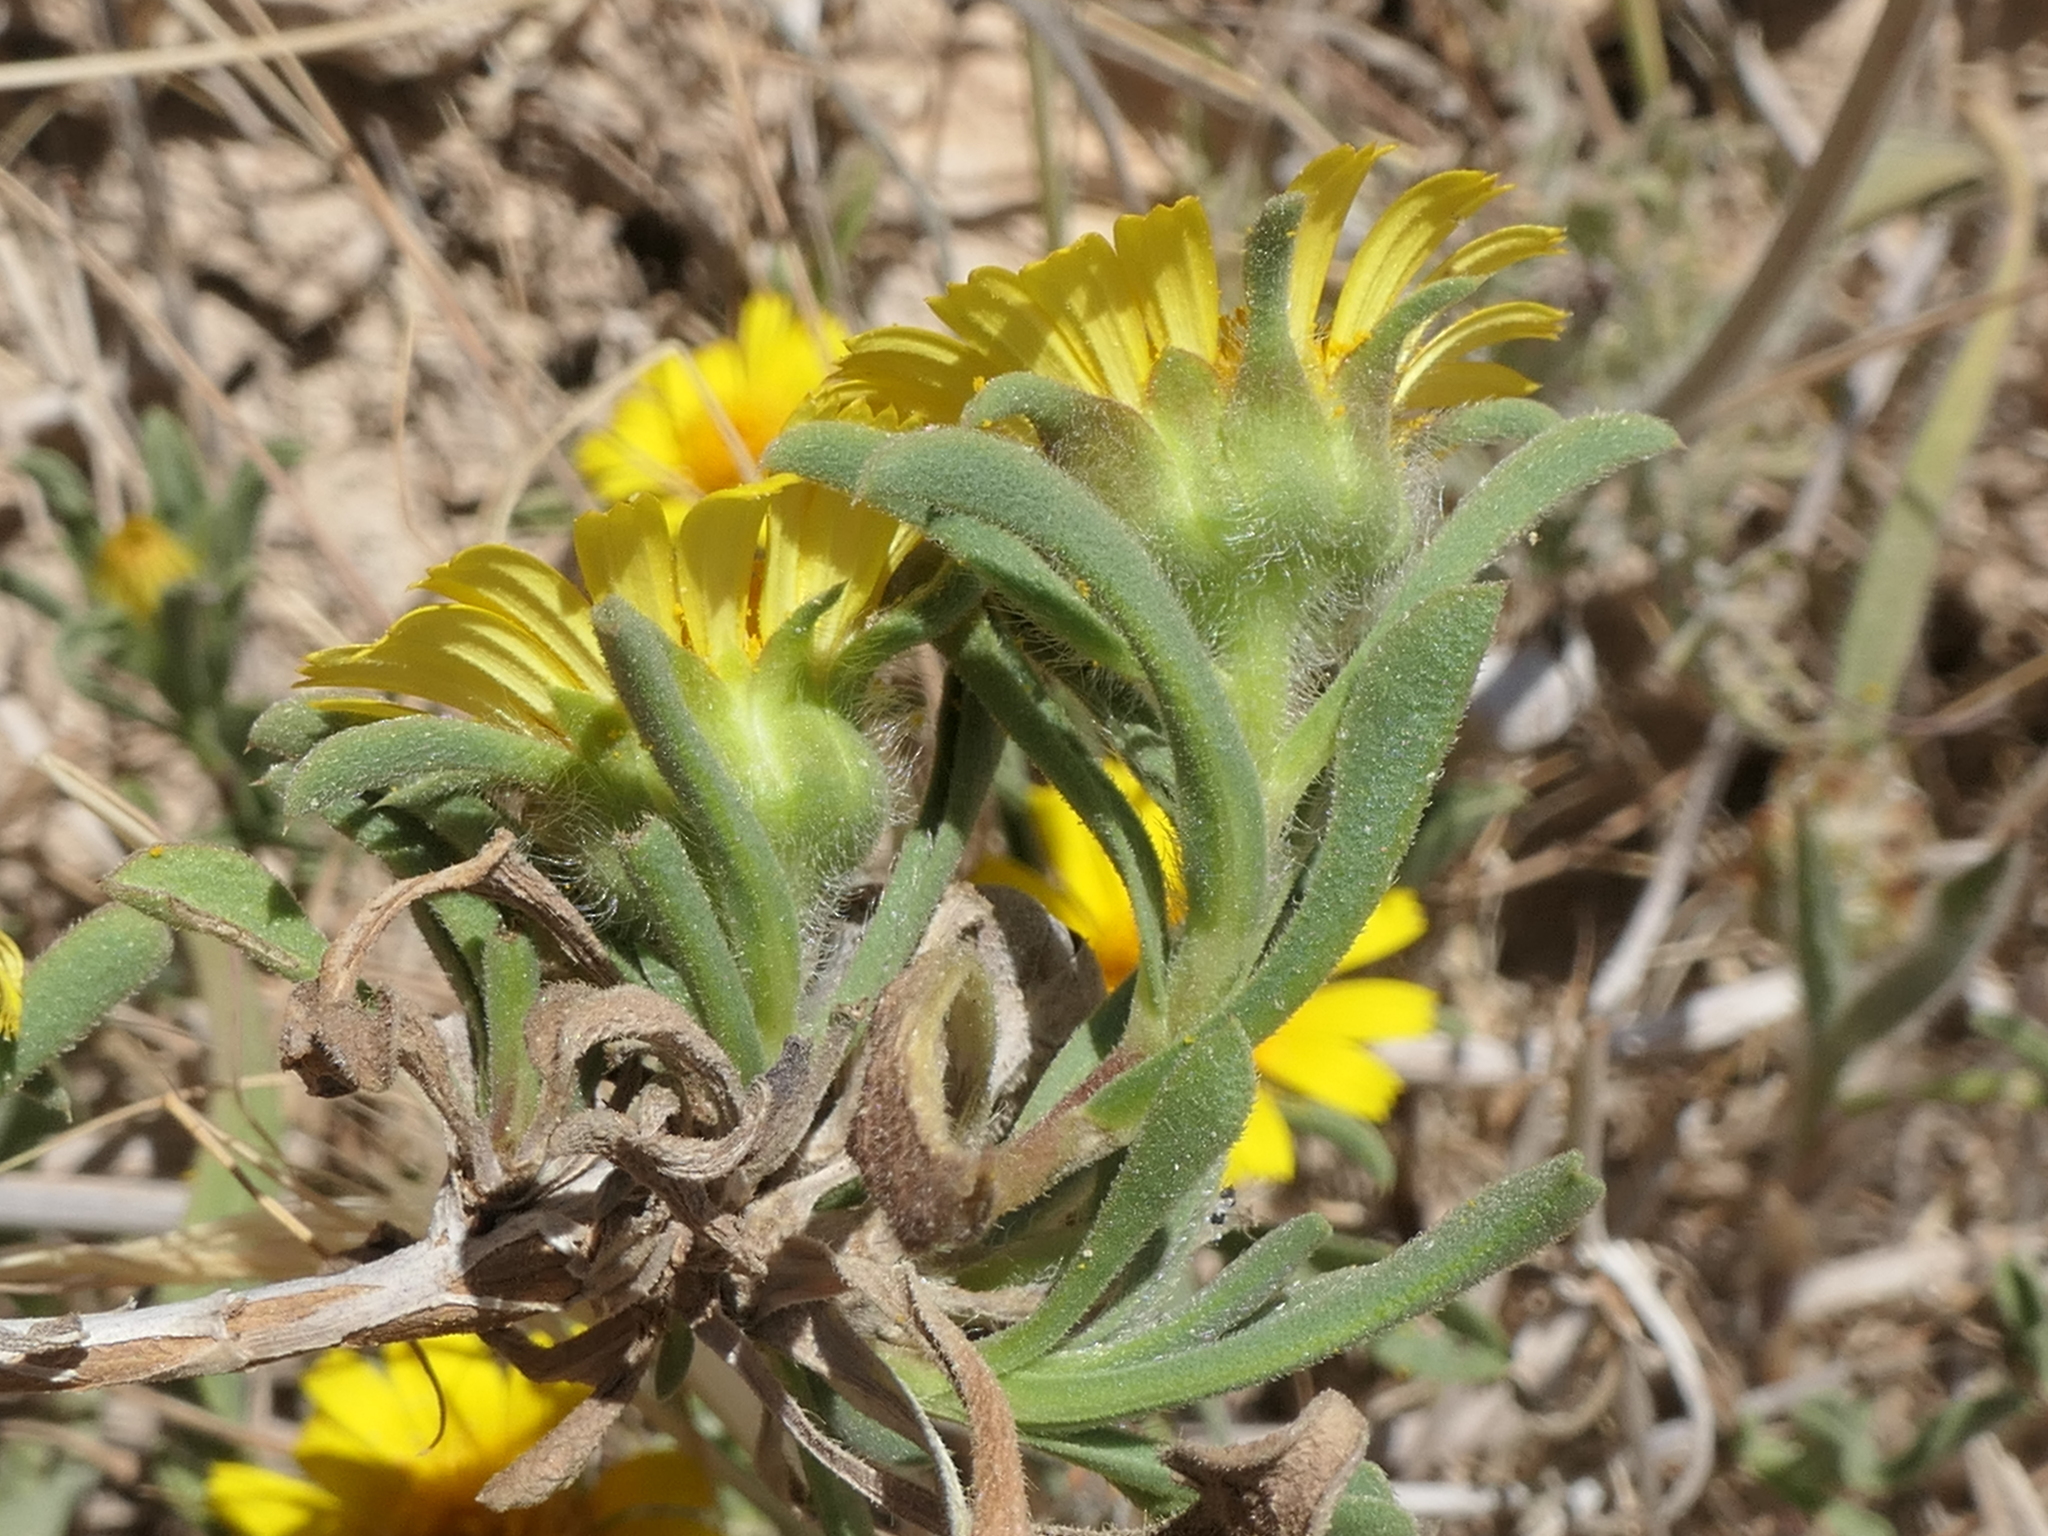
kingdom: Plantae
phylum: Tracheophyta
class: Magnoliopsida
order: Asterales
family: Asteraceae
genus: Pallenis
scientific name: Pallenis maritima
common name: Golden coin daisy
